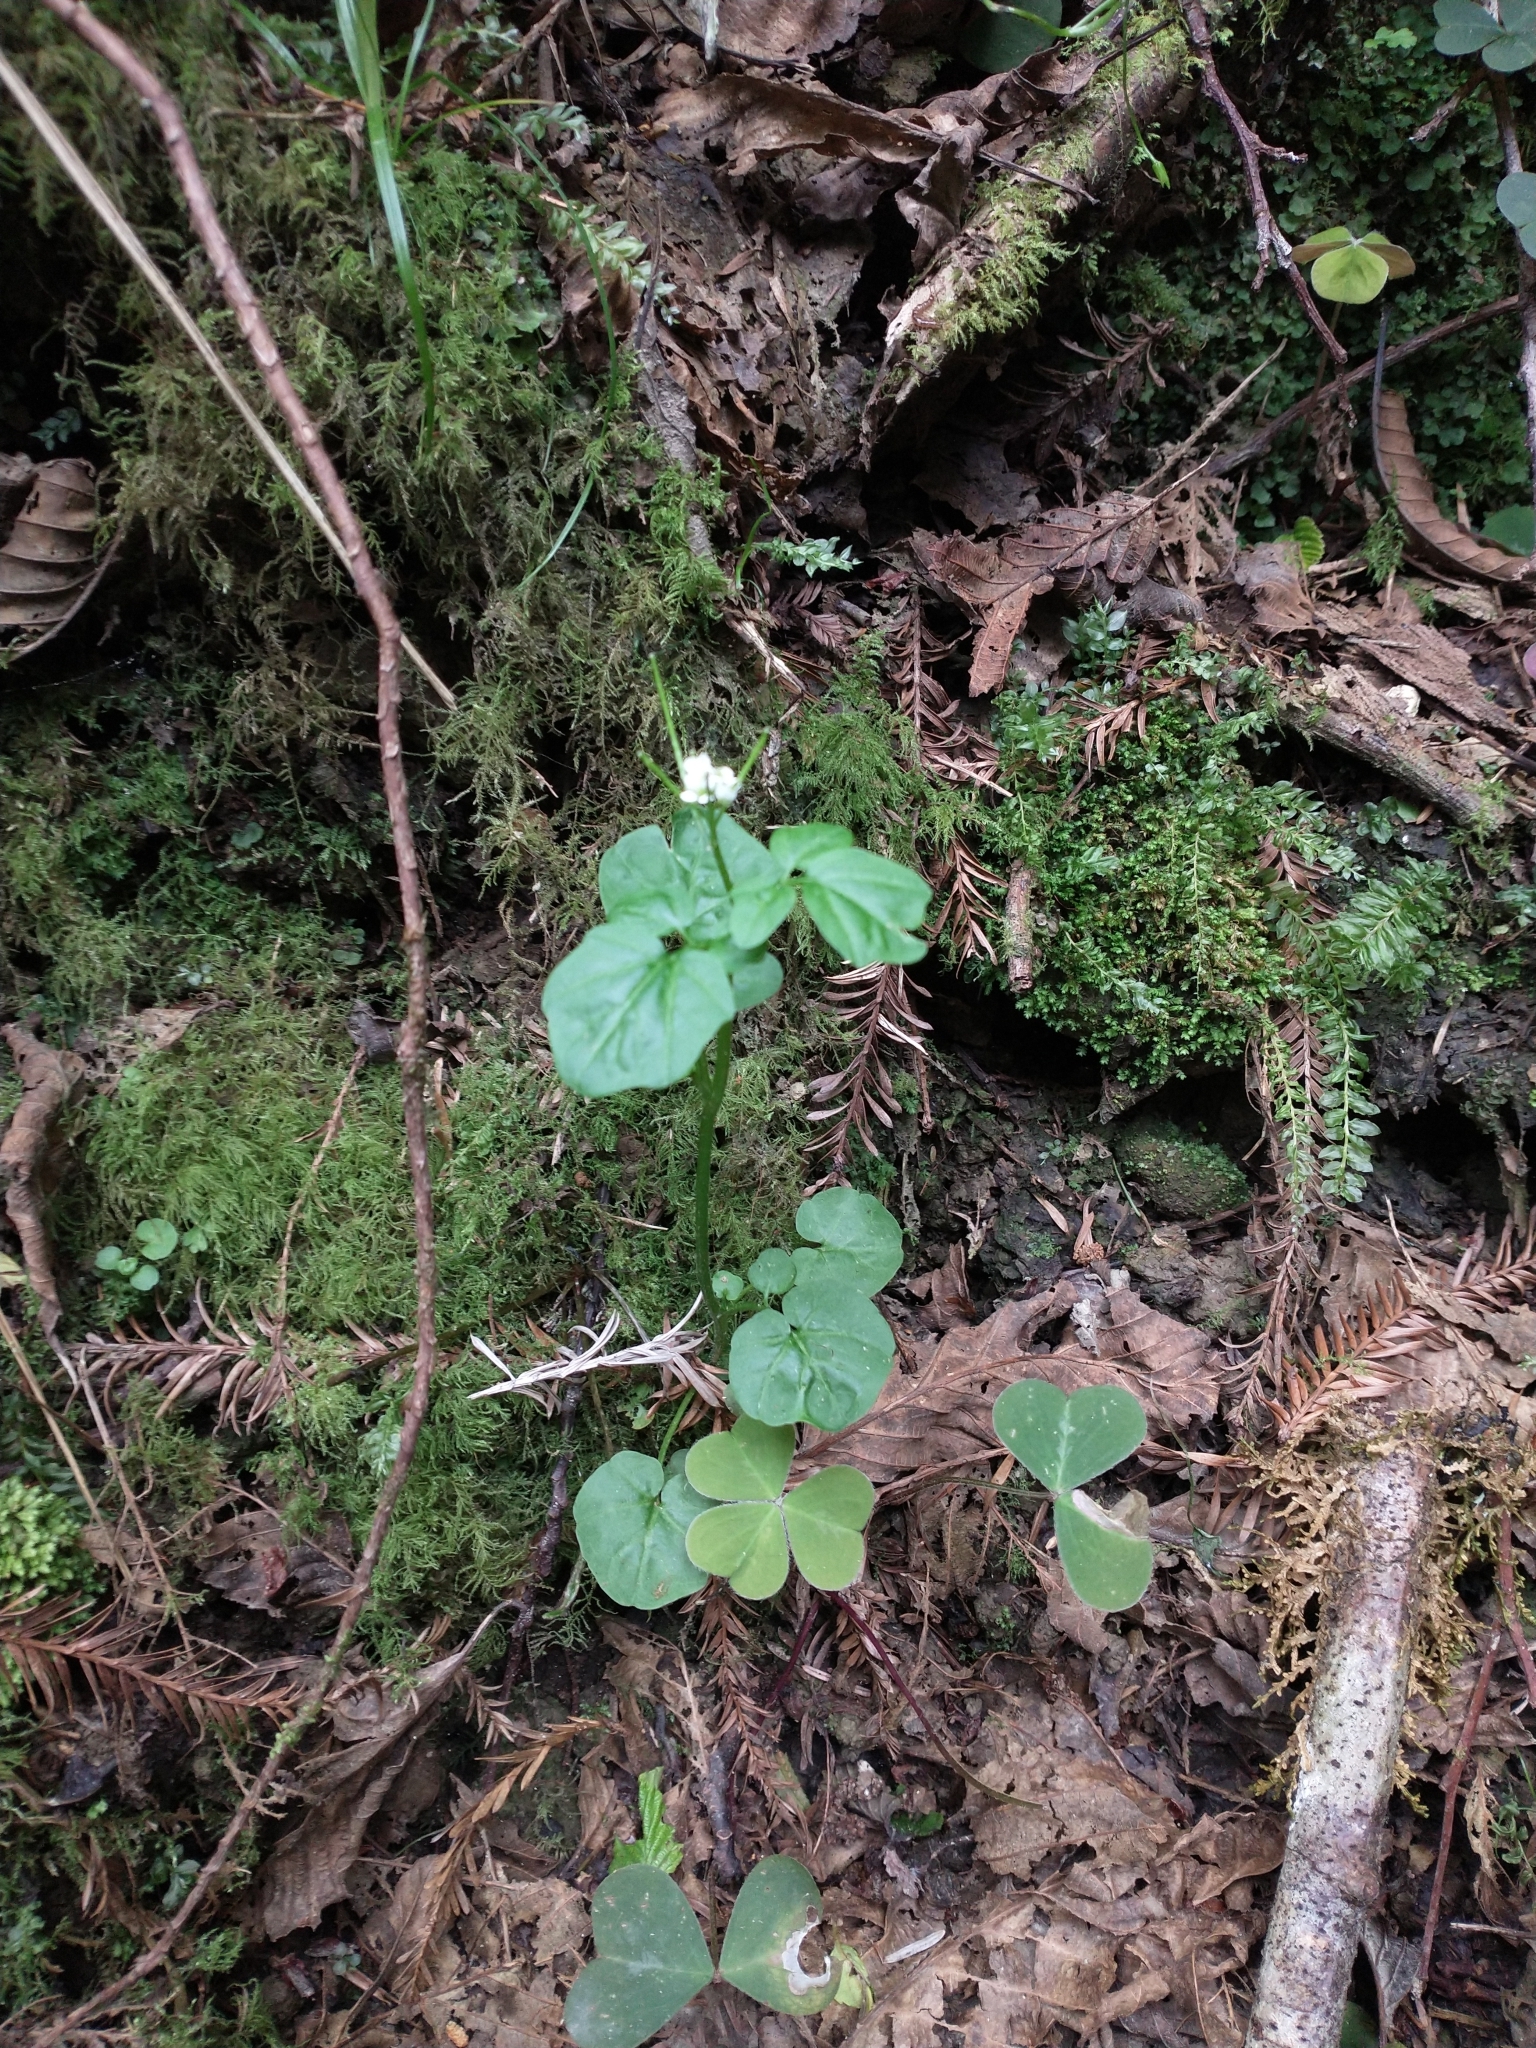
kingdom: Plantae
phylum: Tracheophyta
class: Magnoliopsida
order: Brassicales
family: Brassicaceae
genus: Cardamine
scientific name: Cardamine breweri
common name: Brewer's bittercress
